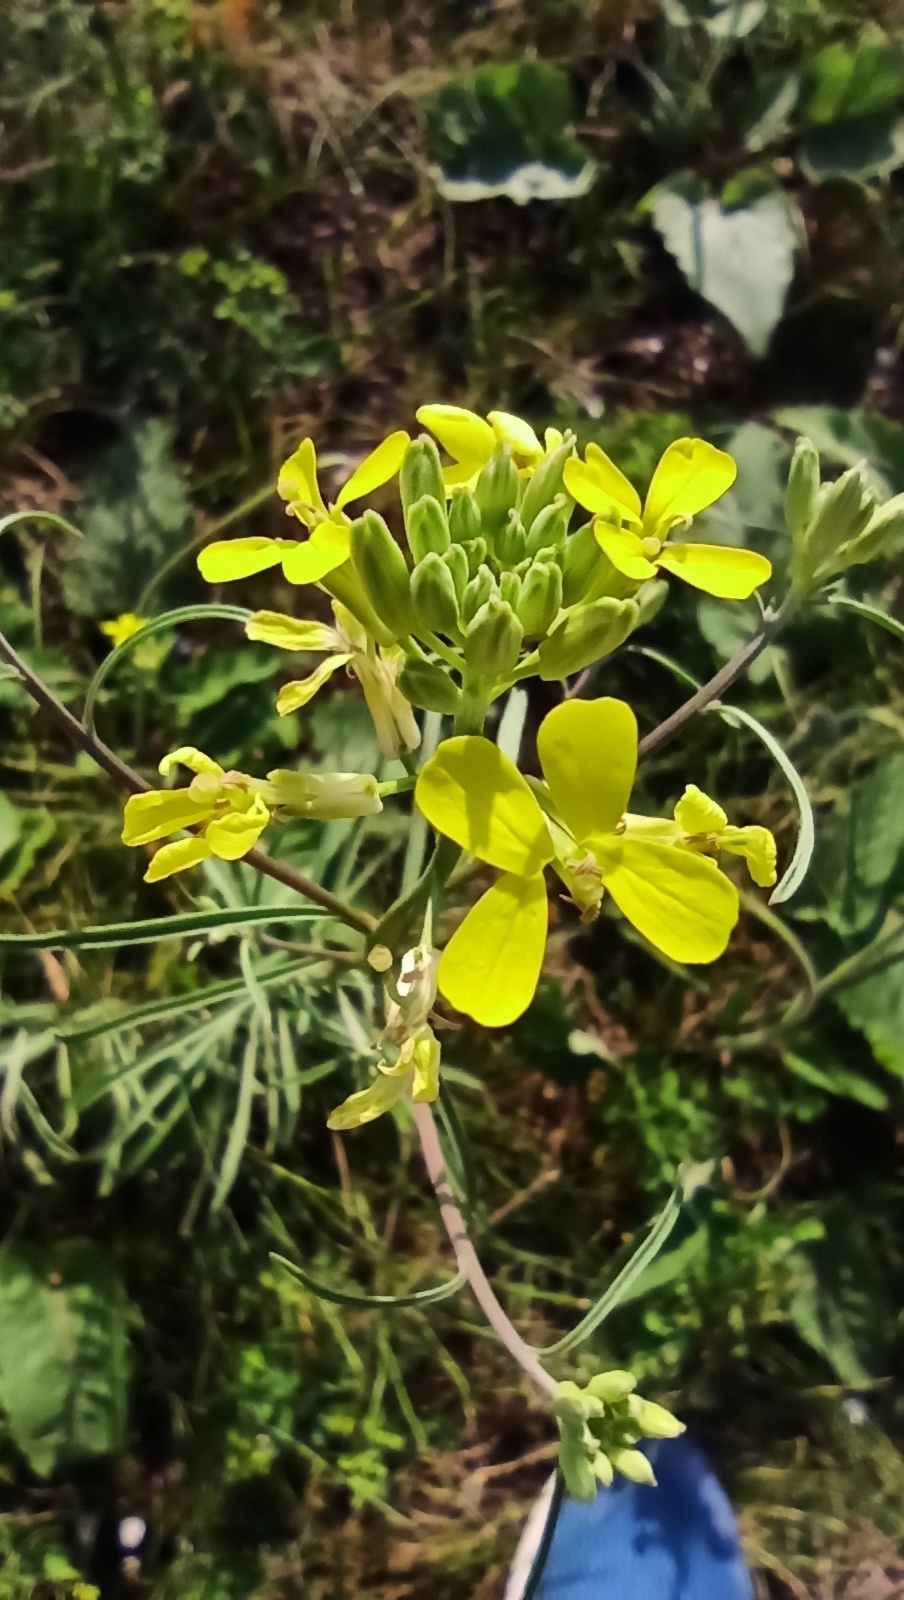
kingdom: Plantae
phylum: Tracheophyta
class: Magnoliopsida
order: Brassicales
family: Brassicaceae
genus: Erysimum
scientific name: Erysimum diffusum
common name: Diffuse wallflower
